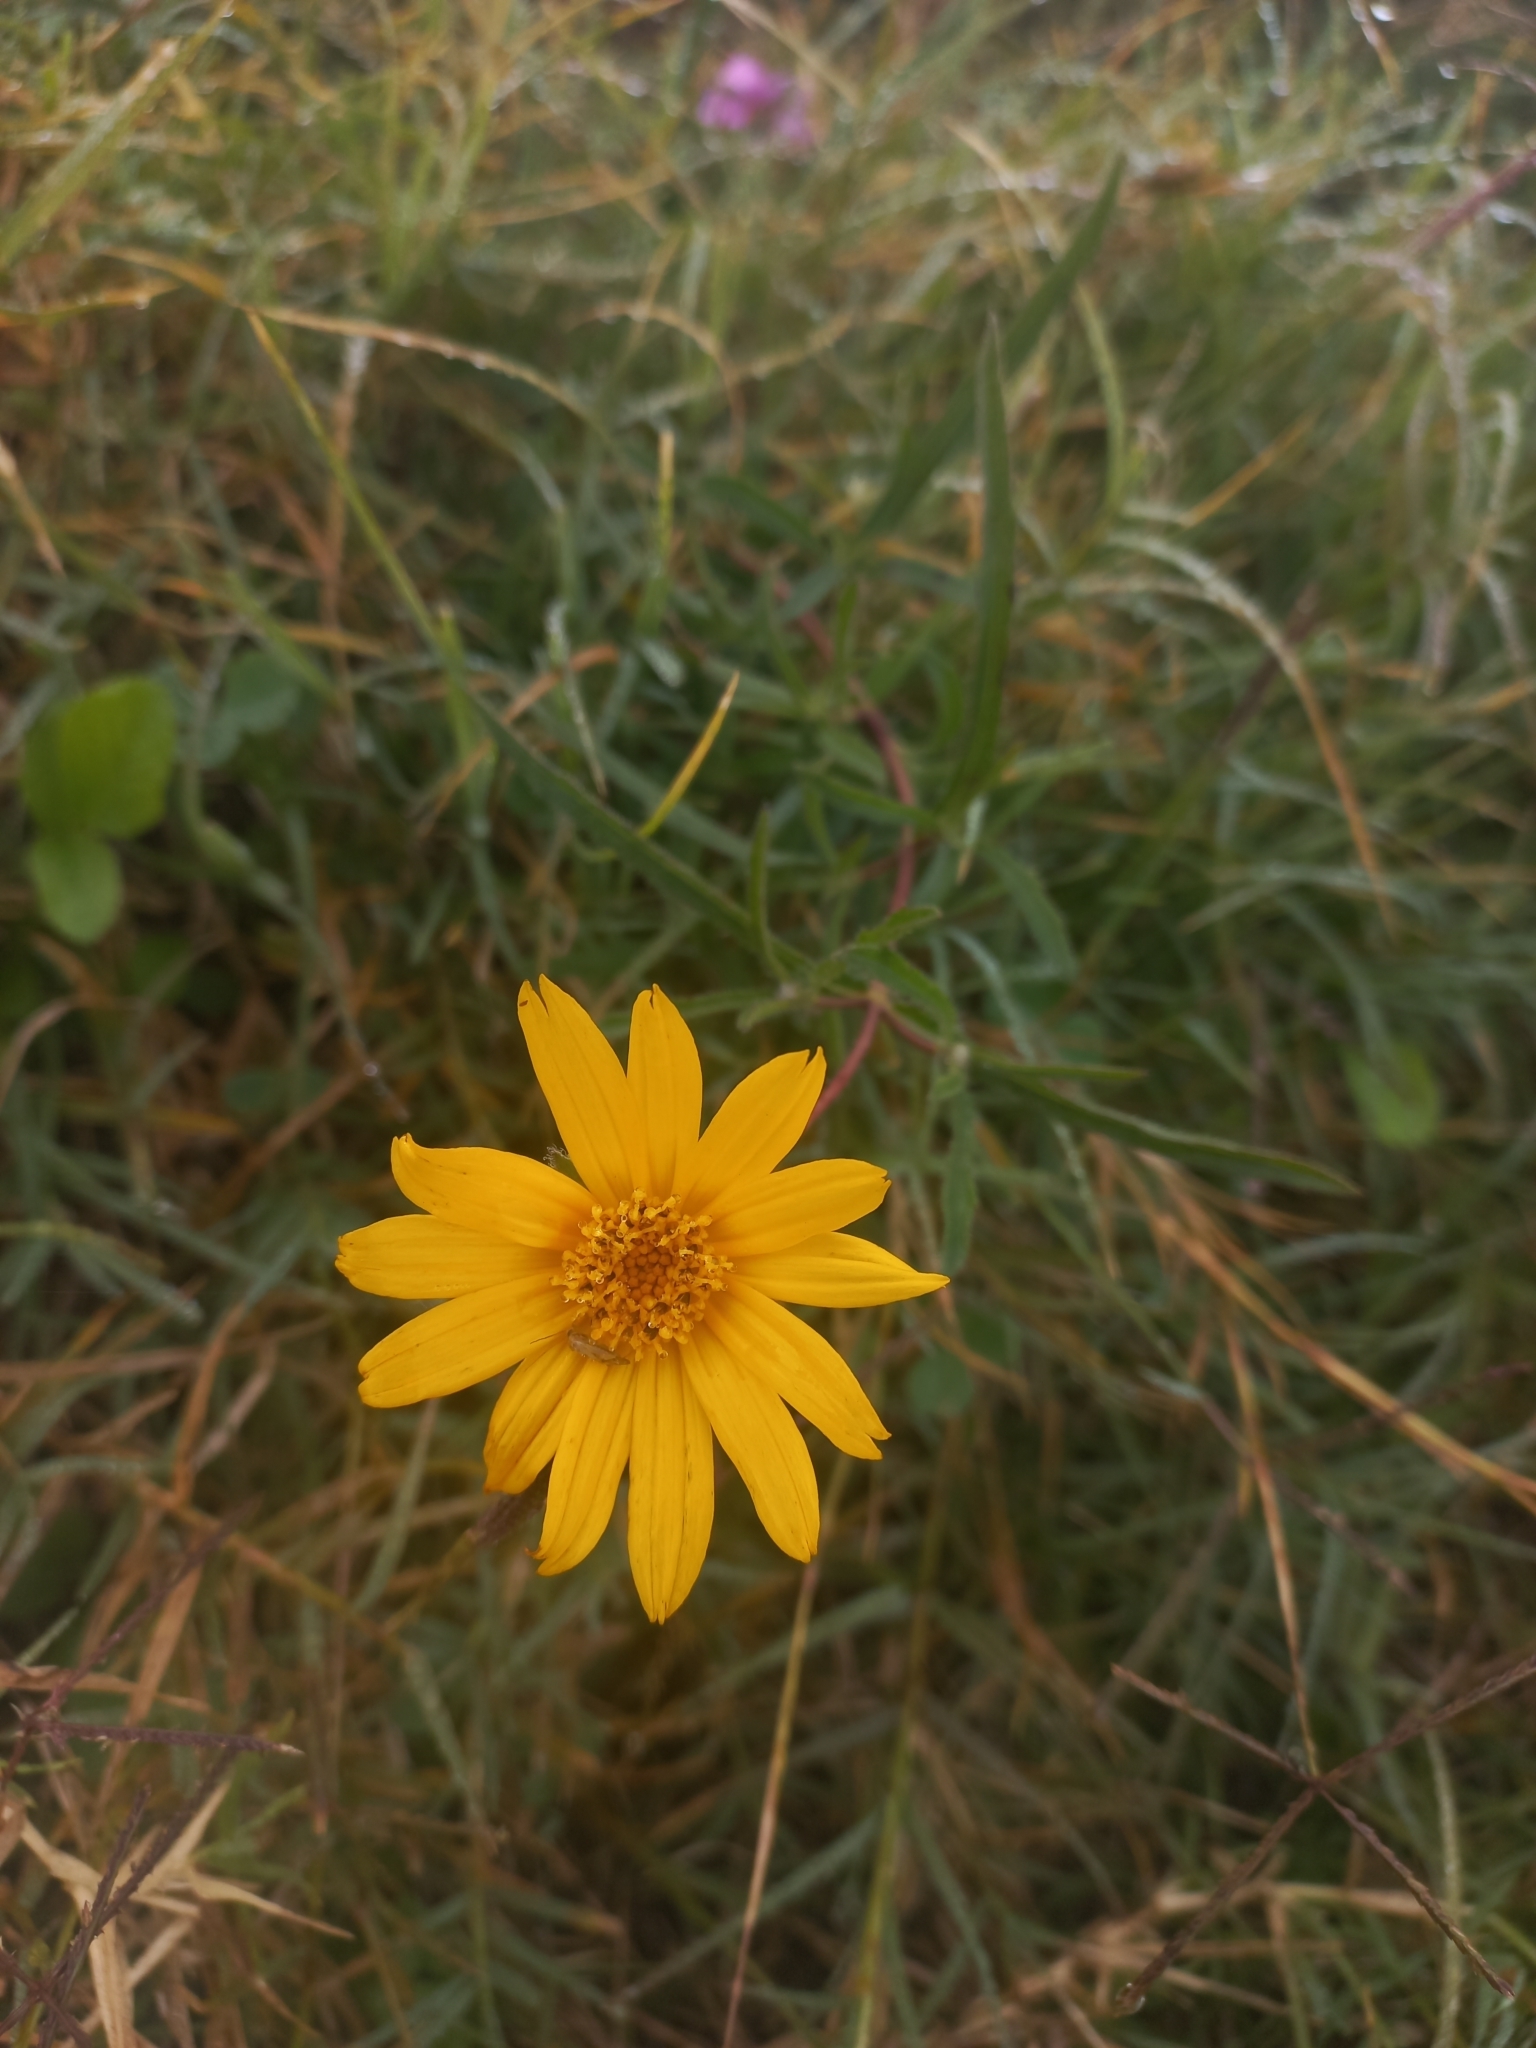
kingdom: Plantae
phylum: Tracheophyta
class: Magnoliopsida
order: Asterales
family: Asteraceae
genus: Wedelia
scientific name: Wedelia montevidensis
